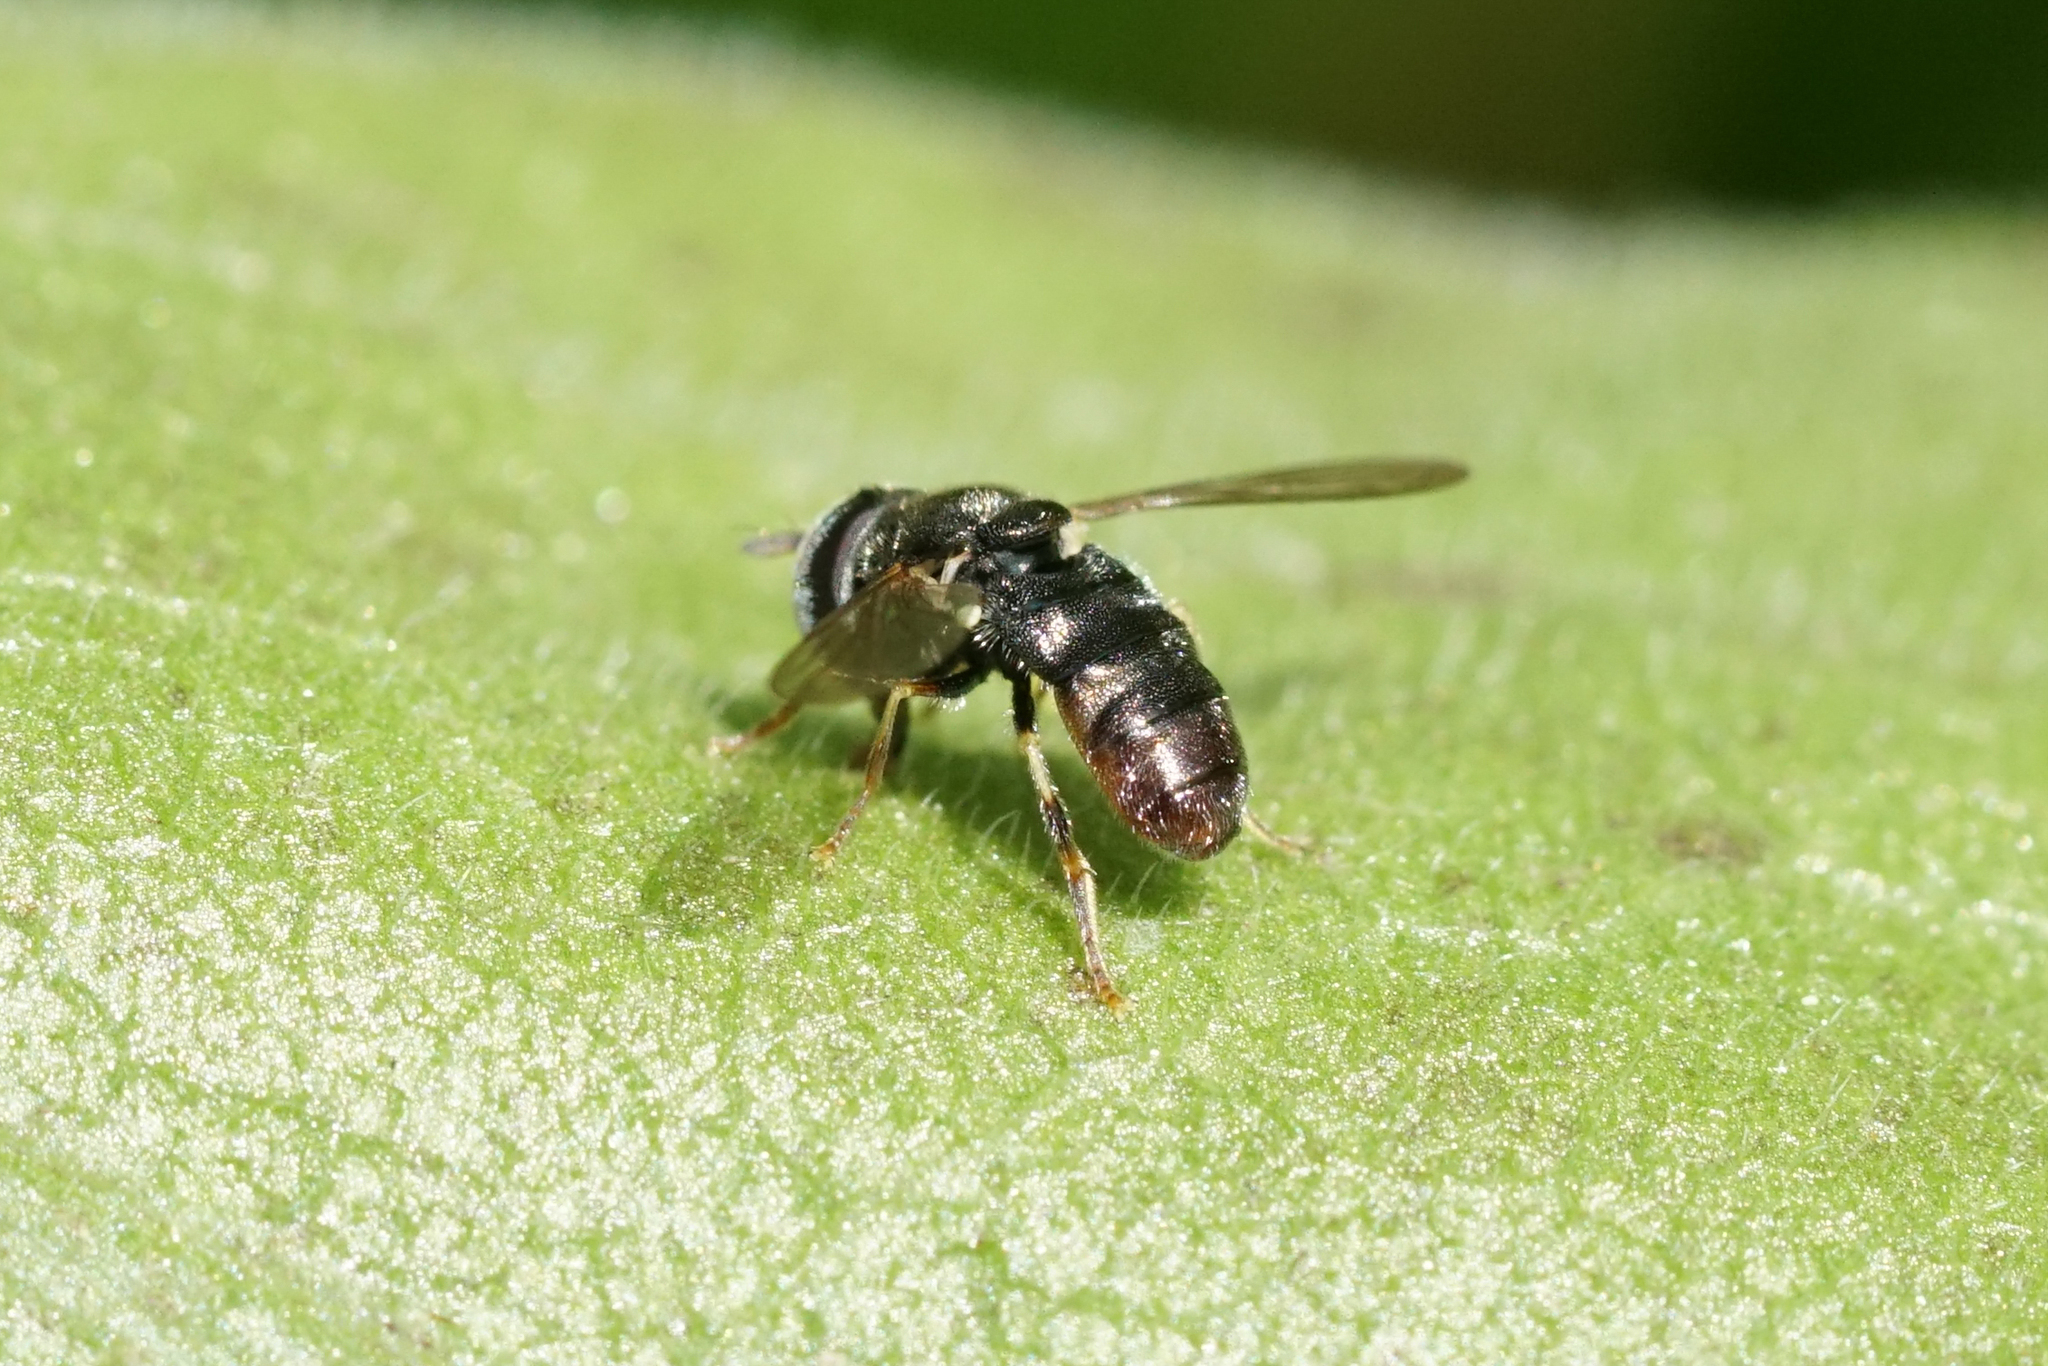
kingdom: Animalia
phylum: Arthropoda
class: Insecta
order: Diptera
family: Syrphidae
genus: Paragus
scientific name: Paragus
